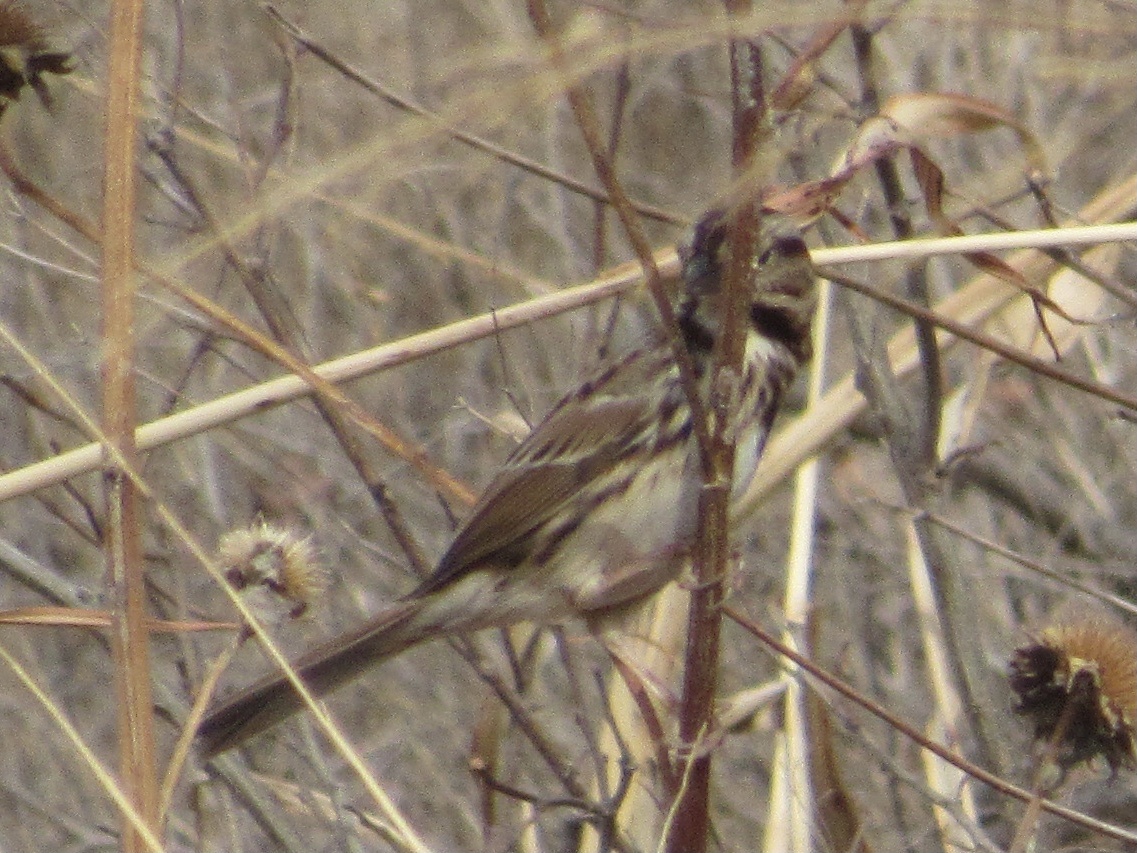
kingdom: Animalia
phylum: Chordata
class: Aves
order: Passeriformes
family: Passerellidae
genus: Melospiza
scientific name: Melospiza melodia
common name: Song sparrow
